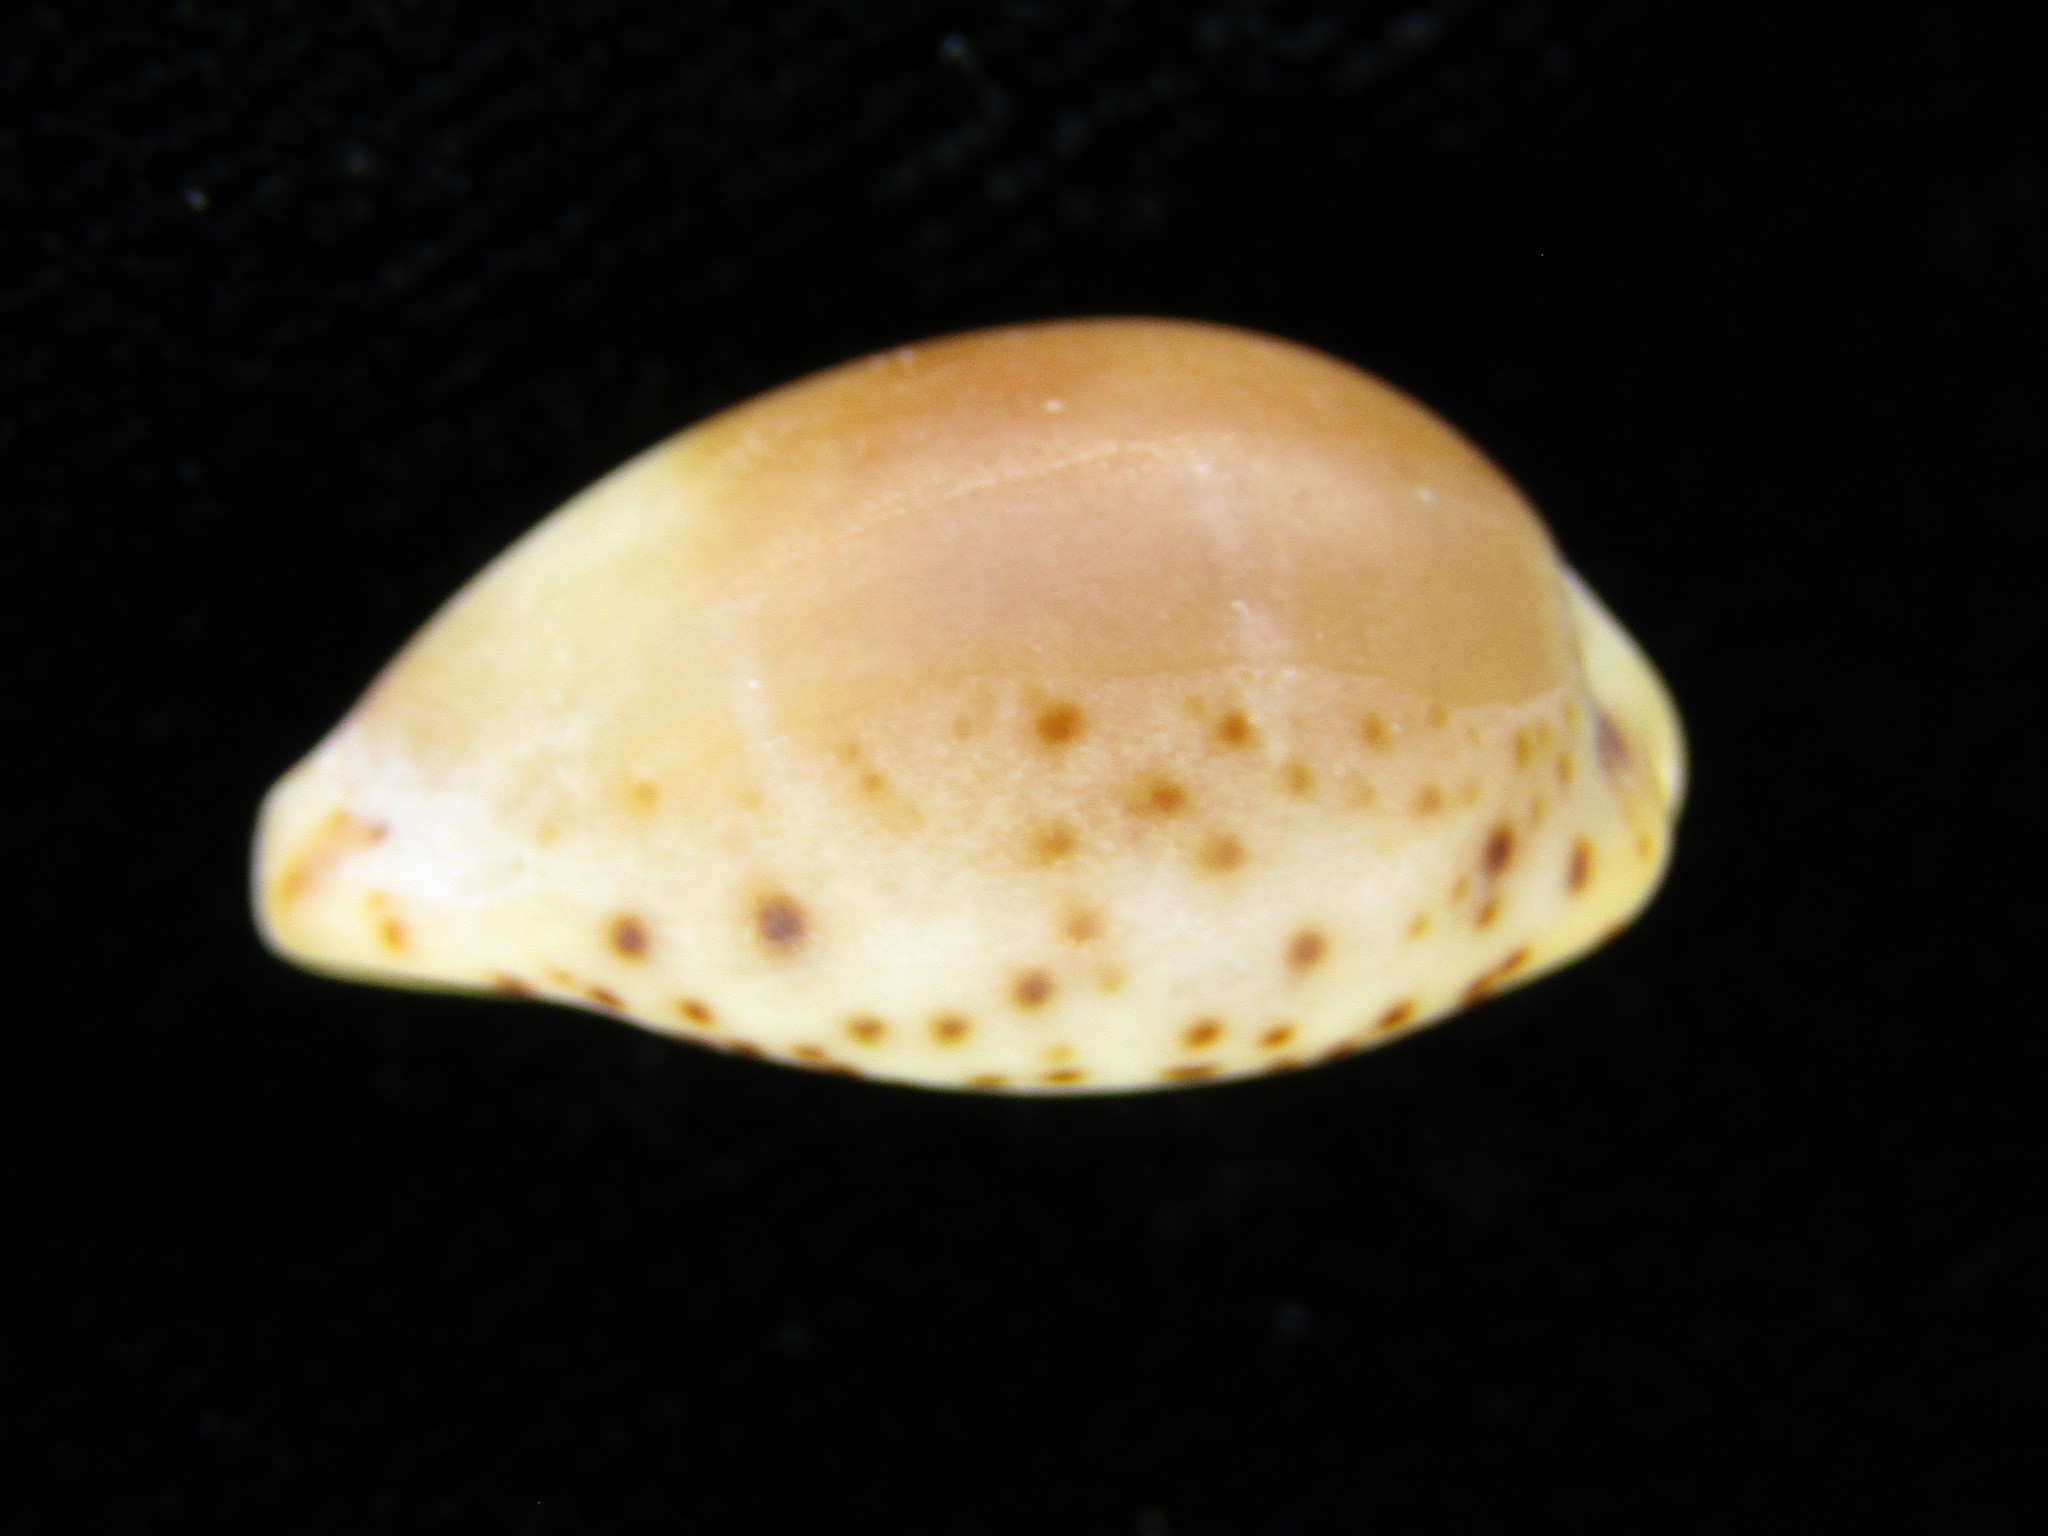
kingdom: Animalia
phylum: Mollusca
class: Gastropoda
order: Littorinimorpha
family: Cypraeidae
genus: Palmadusta
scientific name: Palmadusta lutea
